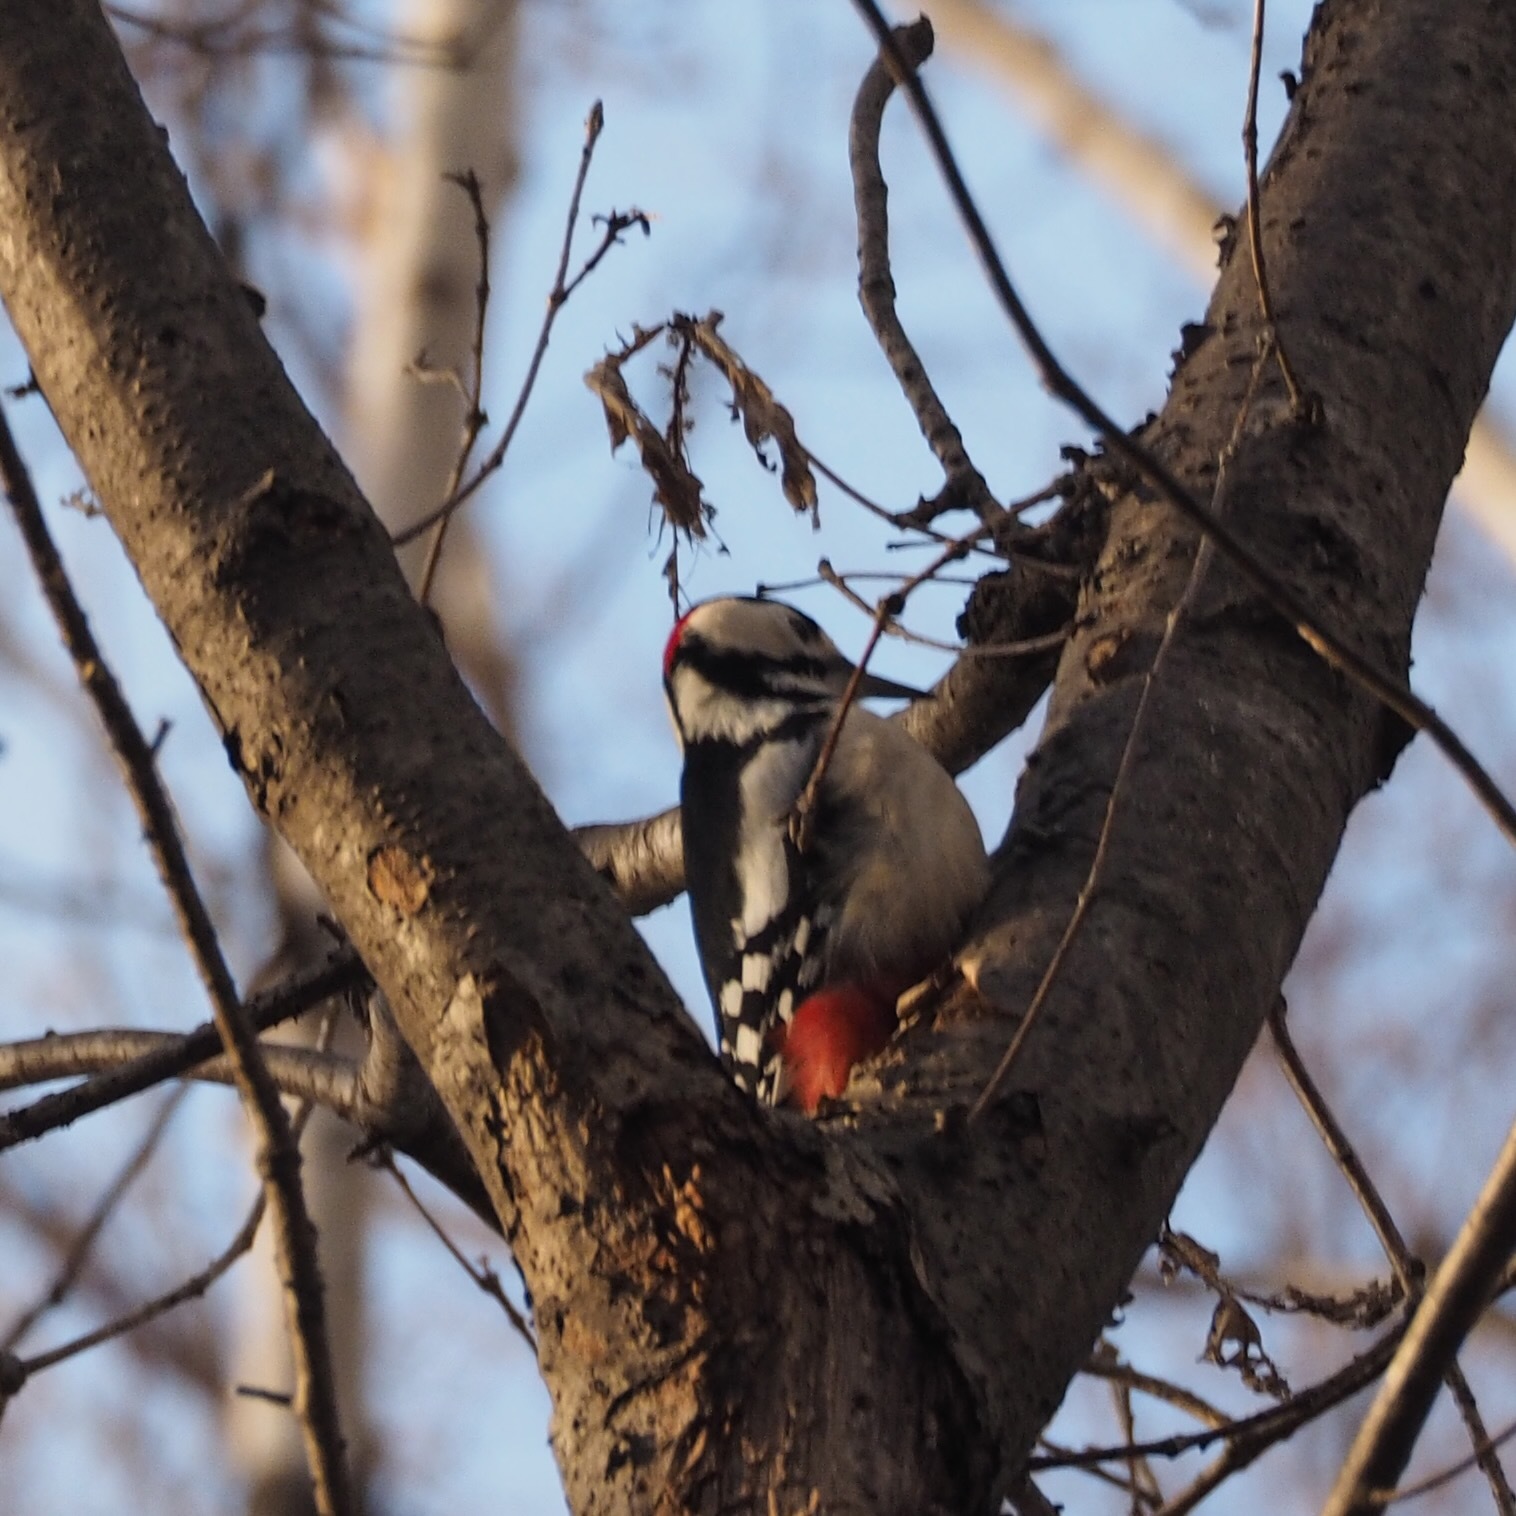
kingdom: Animalia
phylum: Chordata
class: Aves
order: Piciformes
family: Picidae
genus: Dendrocopos
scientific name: Dendrocopos major
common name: Great spotted woodpecker
